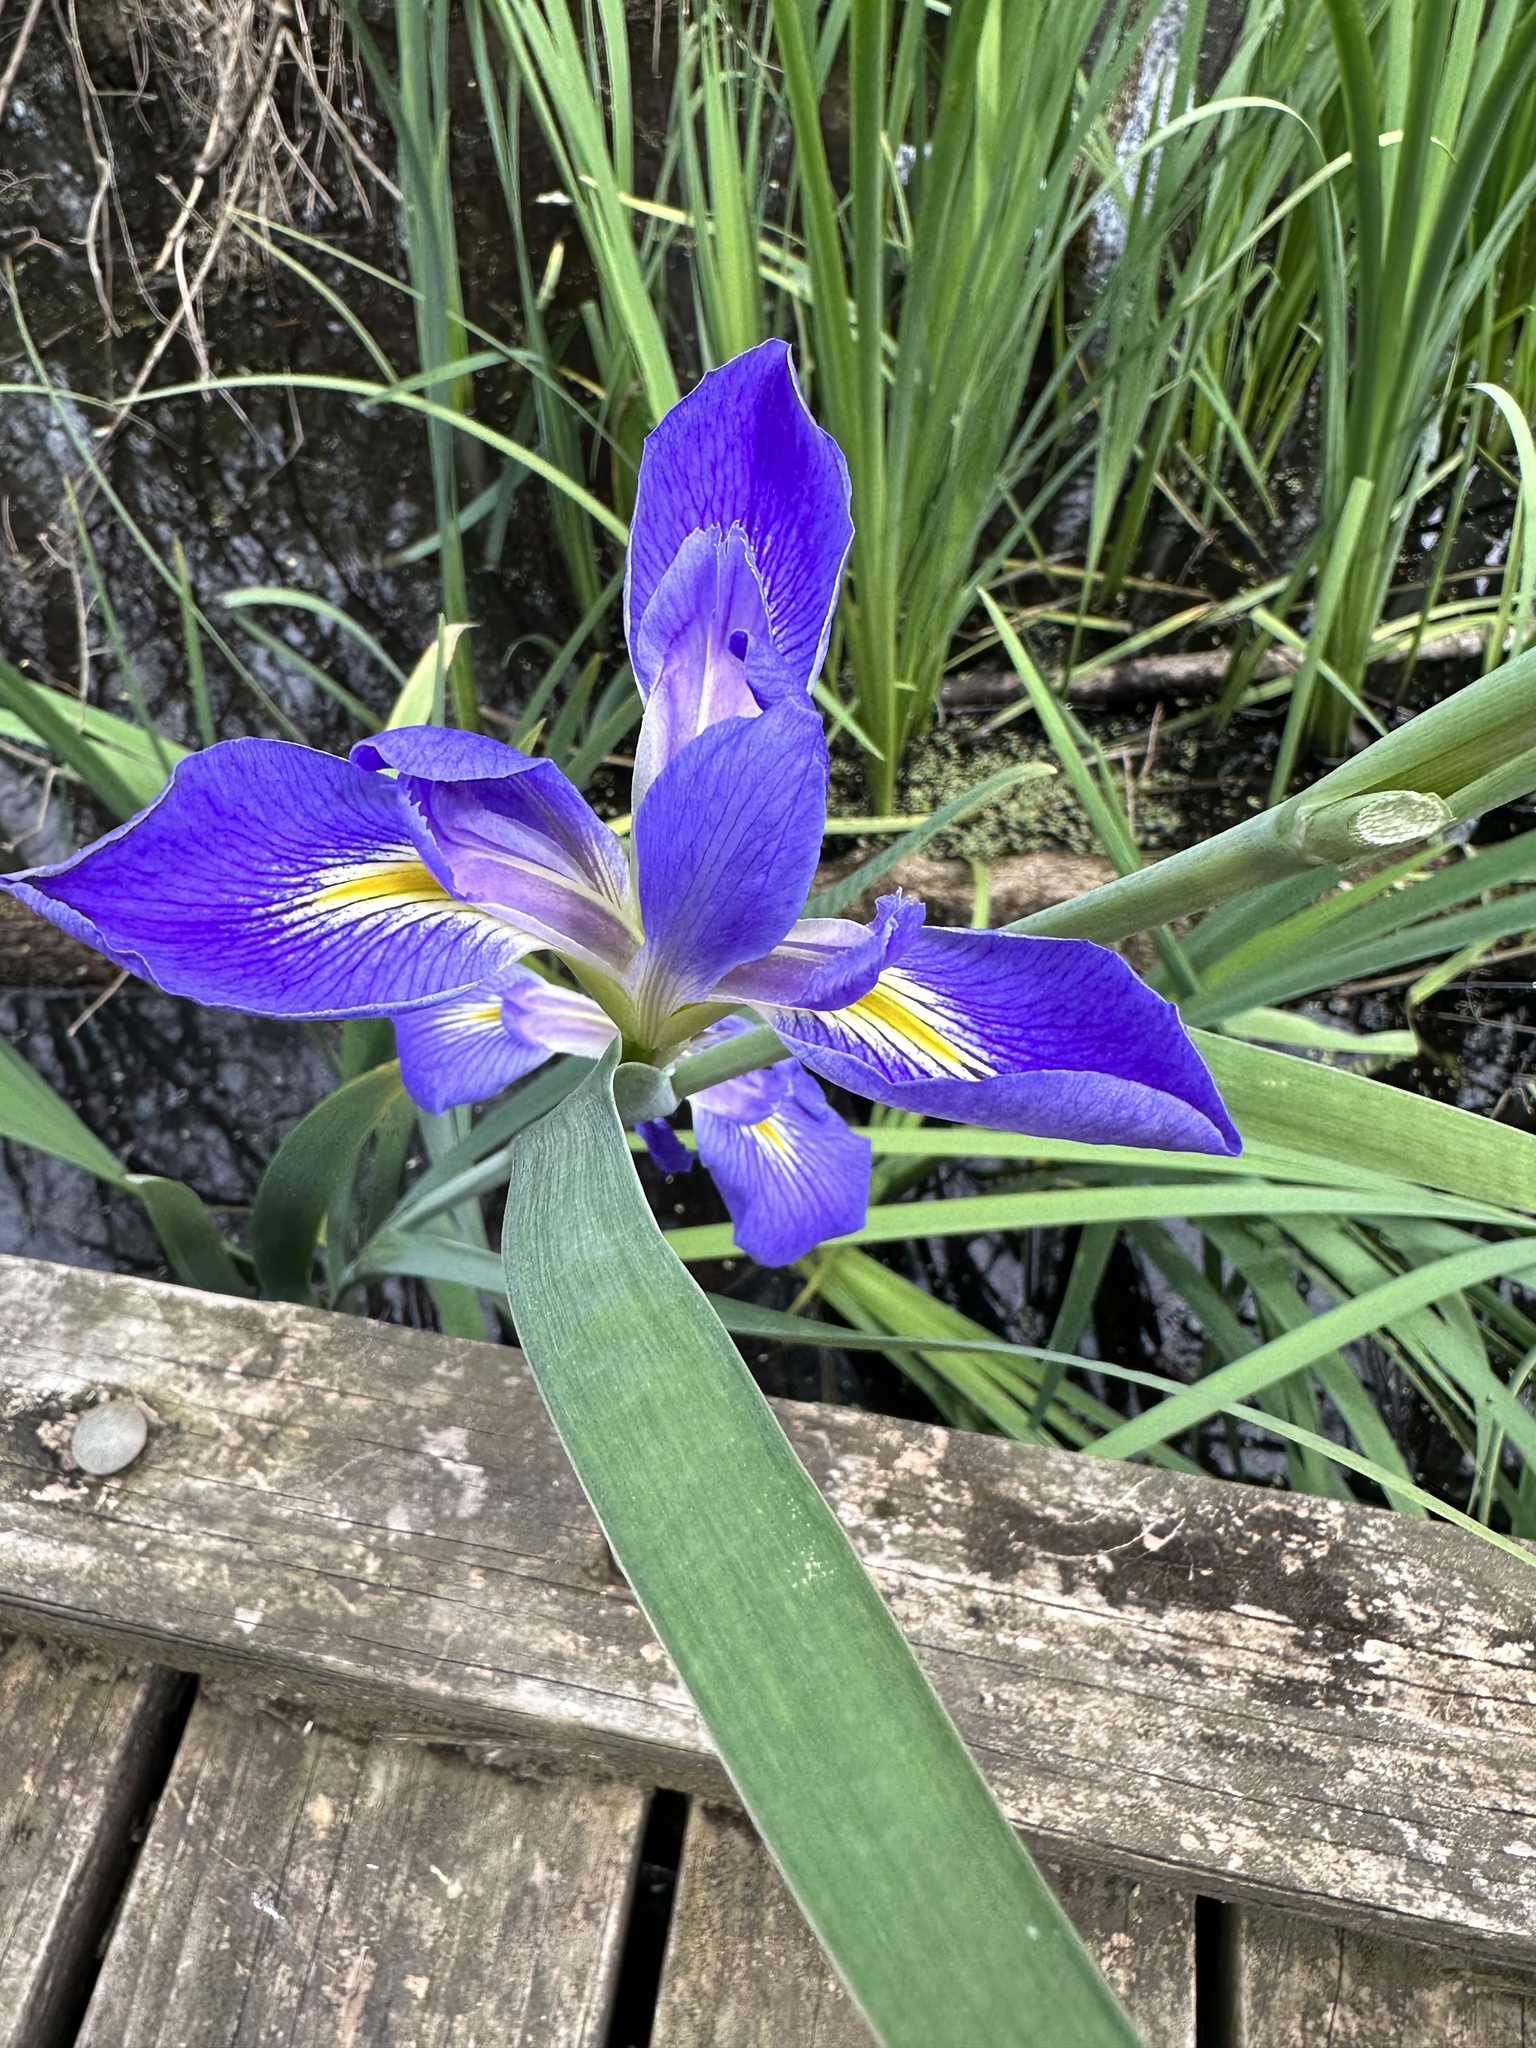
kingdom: Plantae
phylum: Tracheophyta
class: Liliopsida
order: Asparagales
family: Iridaceae
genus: Iris
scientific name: Iris giganticaerulea
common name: Giant blue iris
